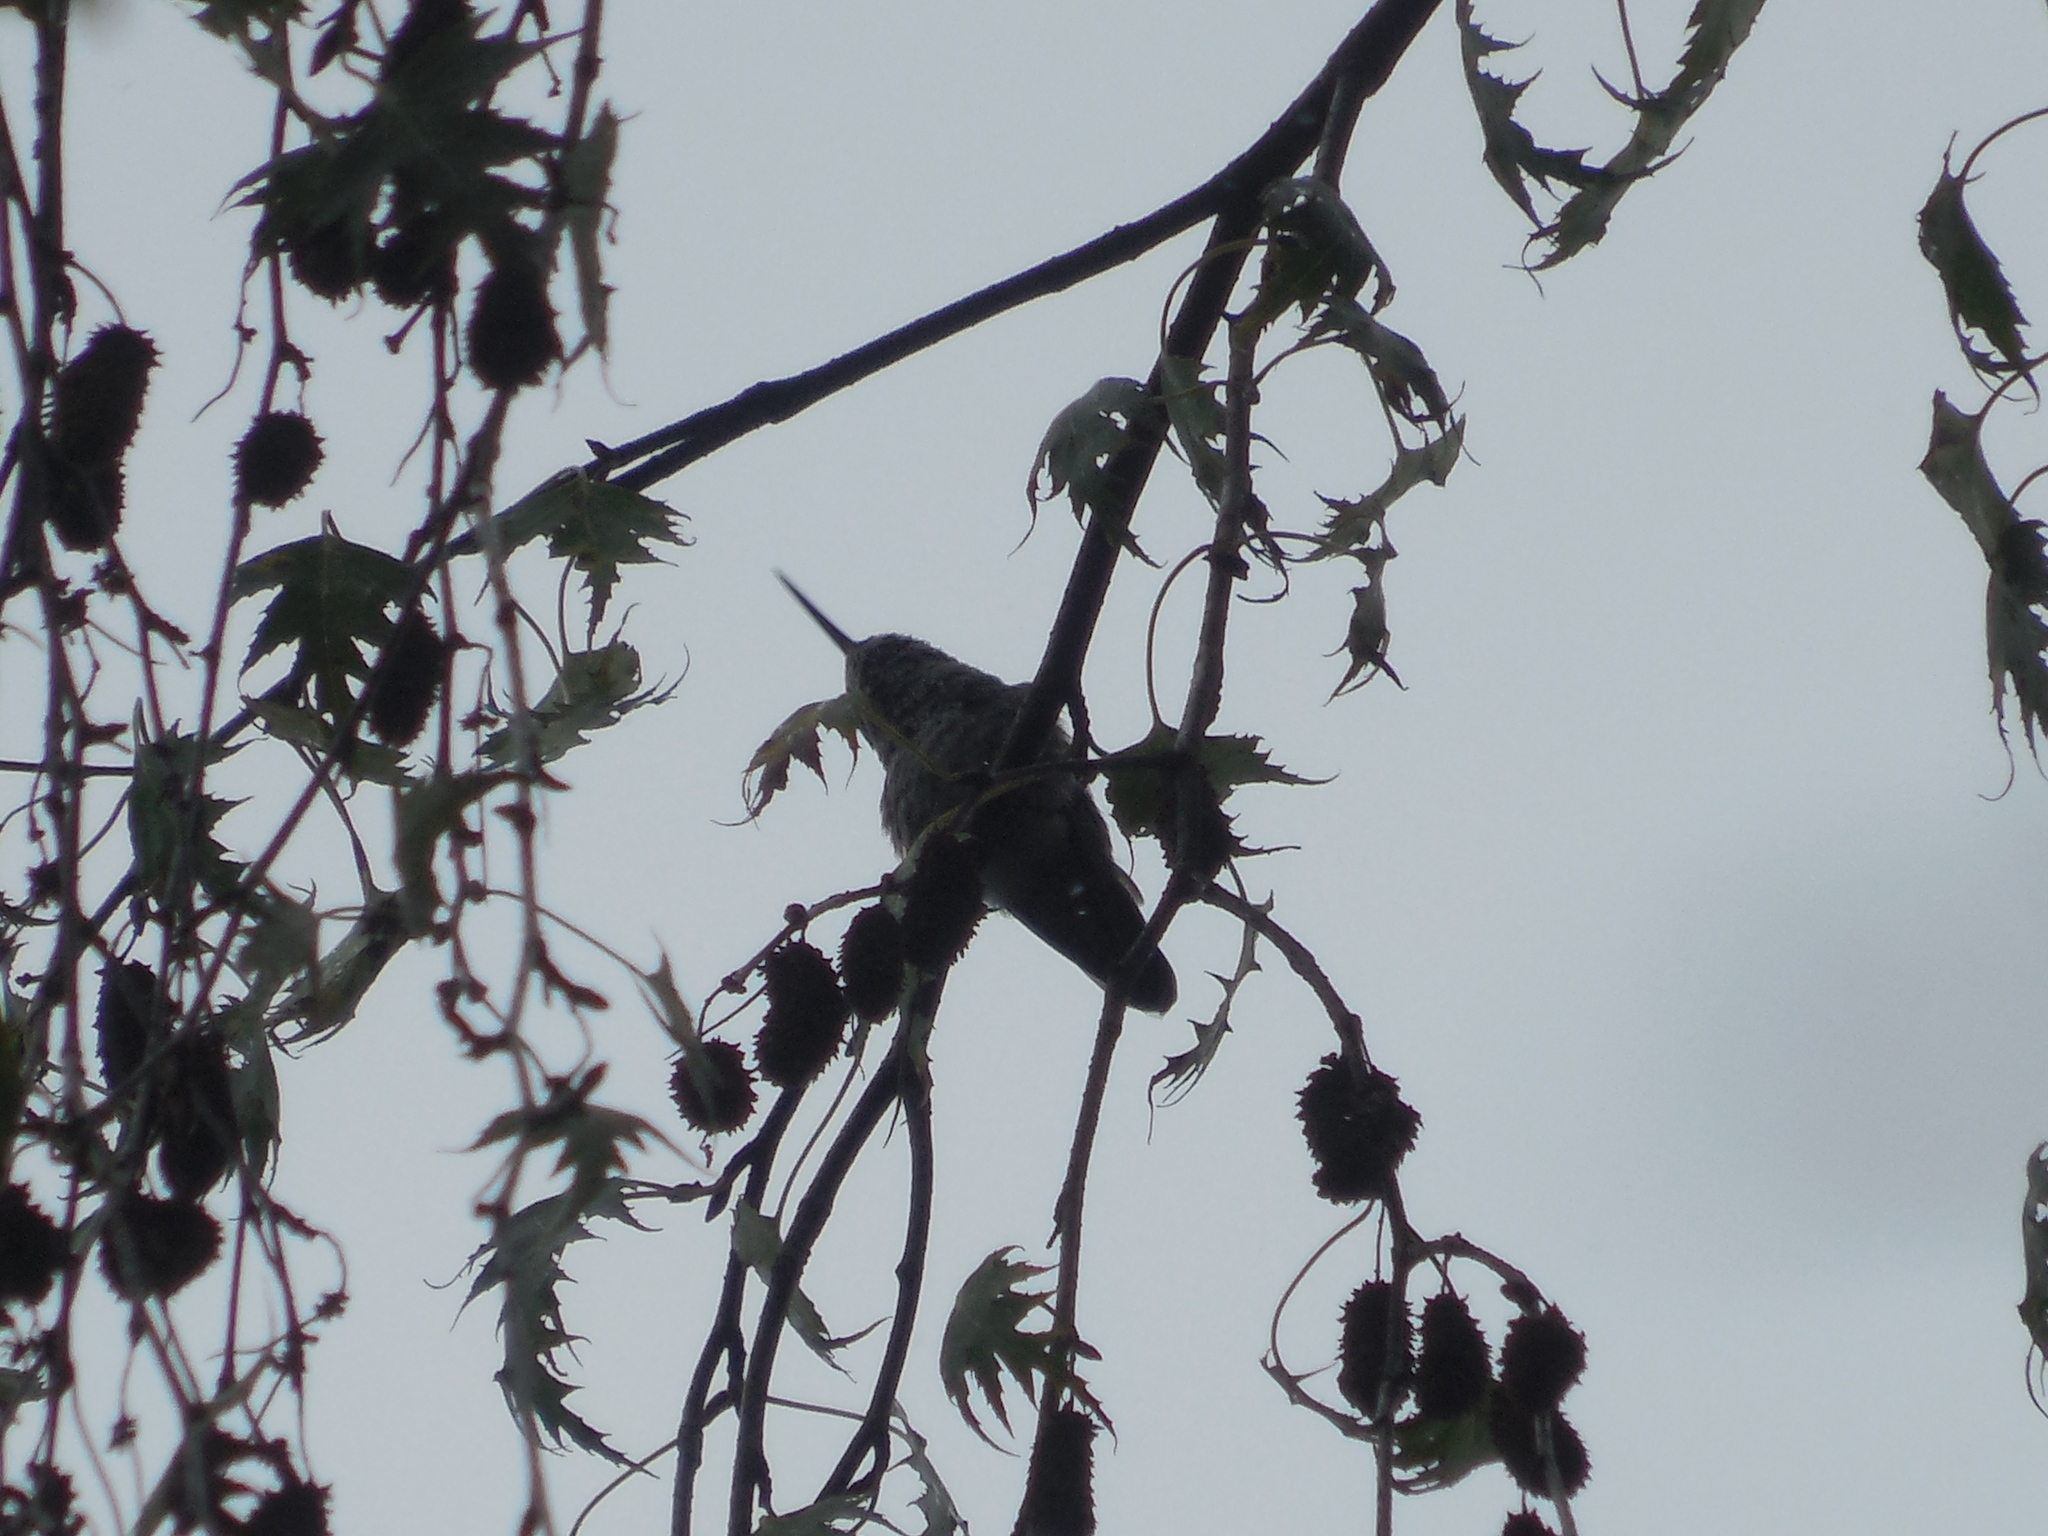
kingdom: Animalia
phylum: Chordata
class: Aves
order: Apodiformes
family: Trochilidae
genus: Calypte
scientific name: Calypte anna
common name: Anna's hummingbird
